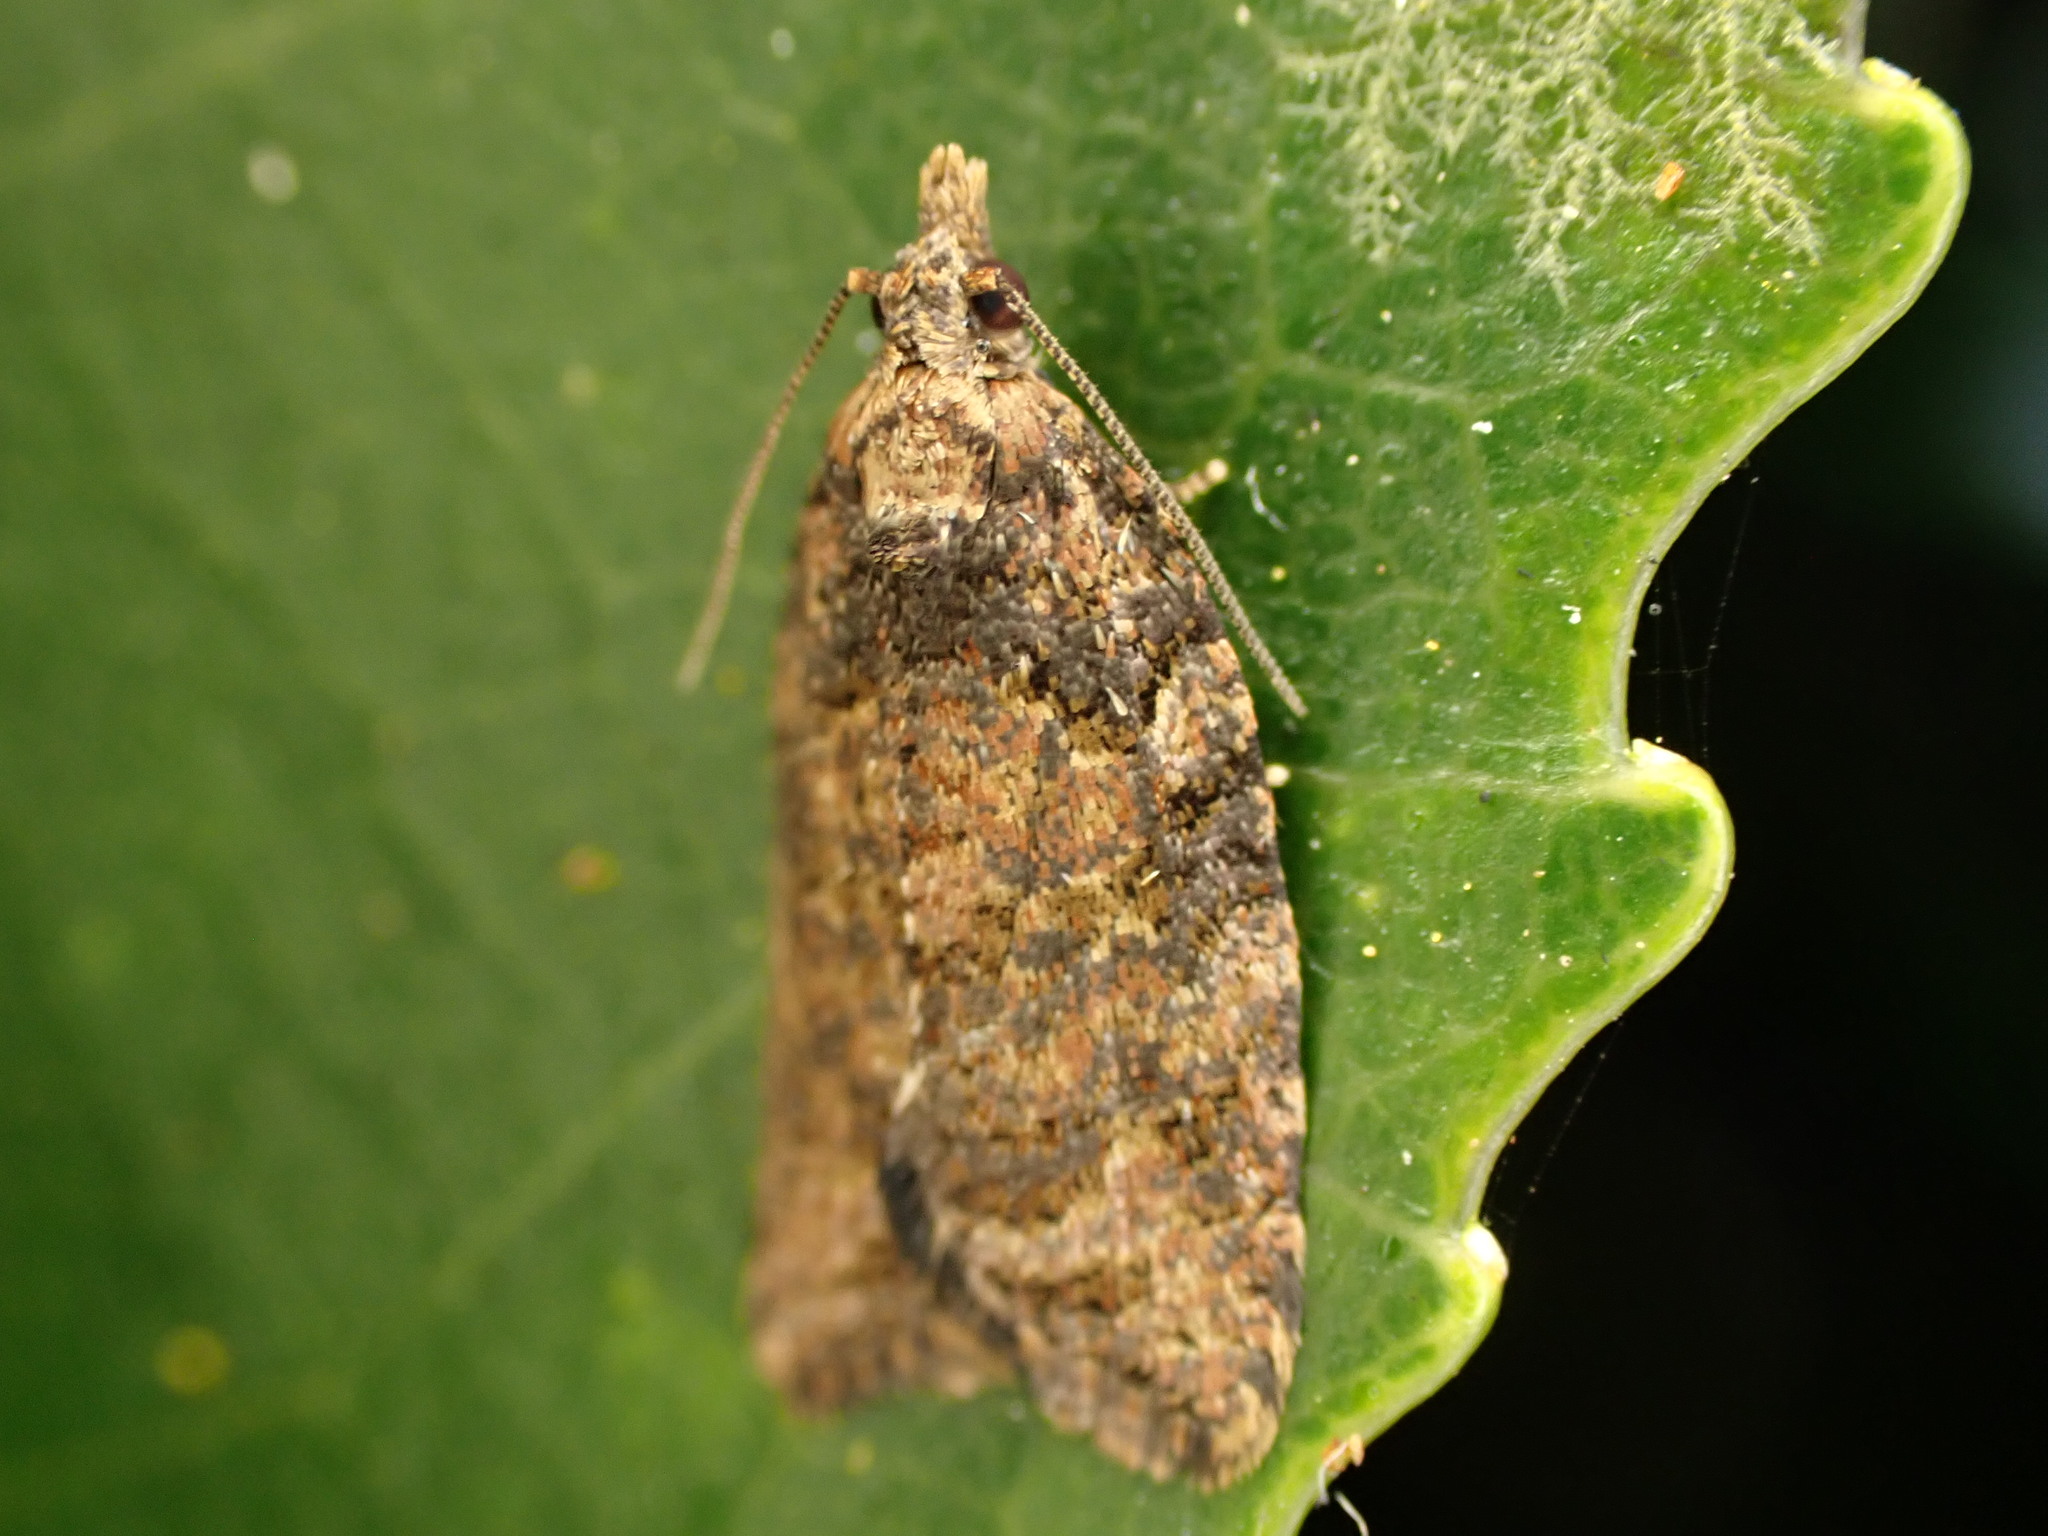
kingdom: Animalia
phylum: Arthropoda
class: Insecta
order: Lepidoptera
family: Tortricidae
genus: Capua
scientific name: Capua intractana
